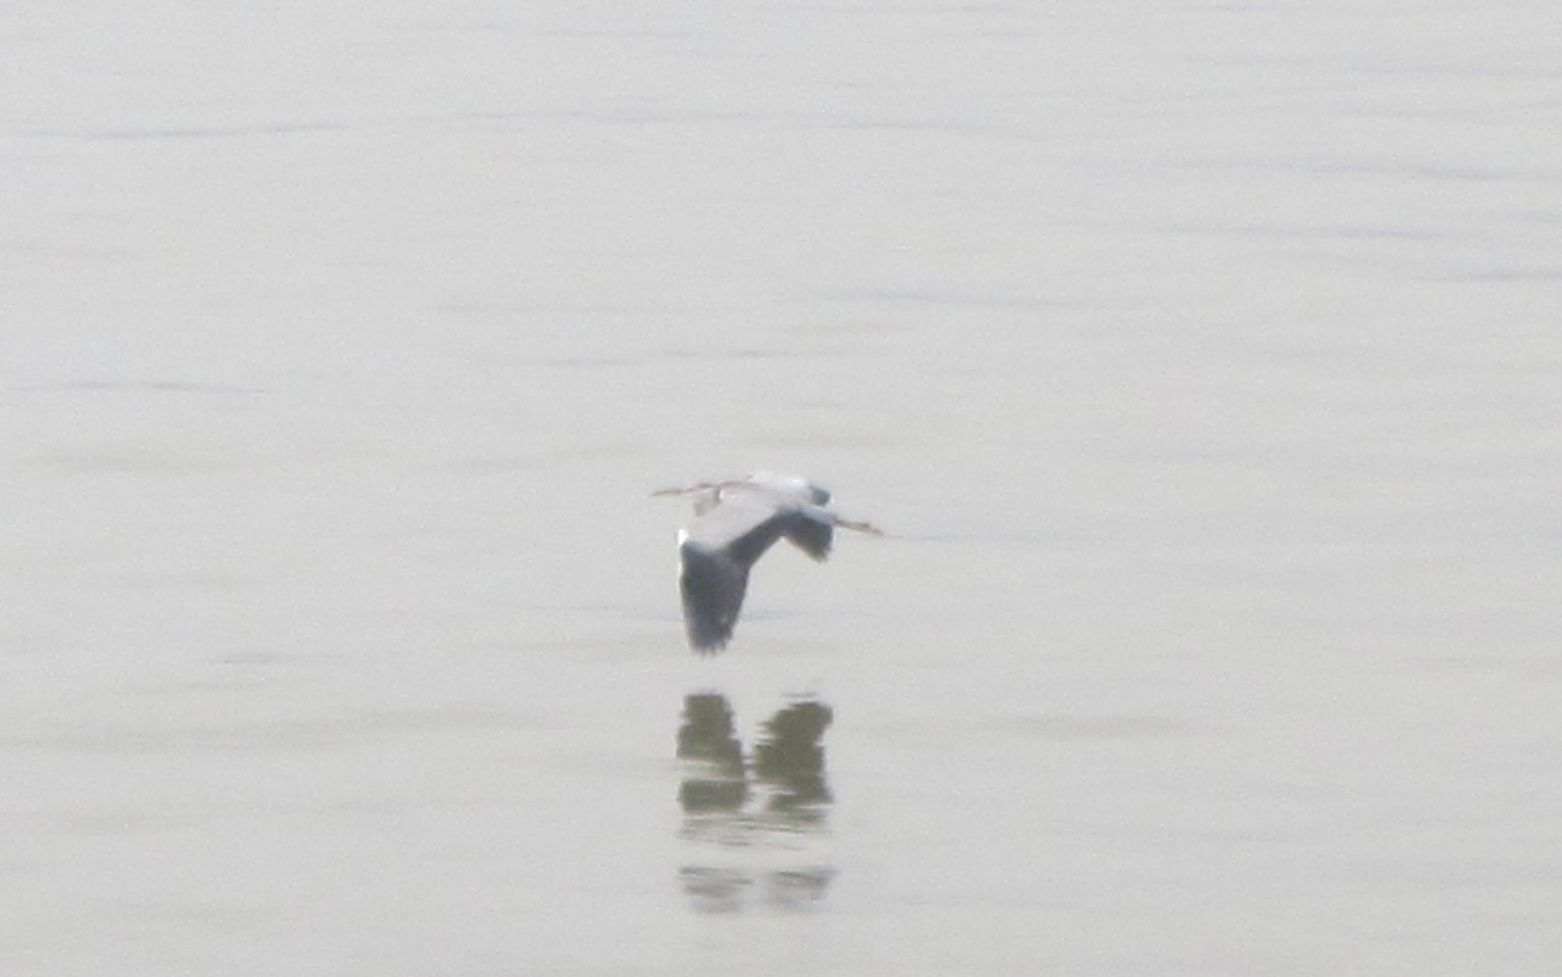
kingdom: Animalia
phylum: Chordata
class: Aves
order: Pelecaniformes
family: Ardeidae
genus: Ardea
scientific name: Ardea cinerea
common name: Grey heron
